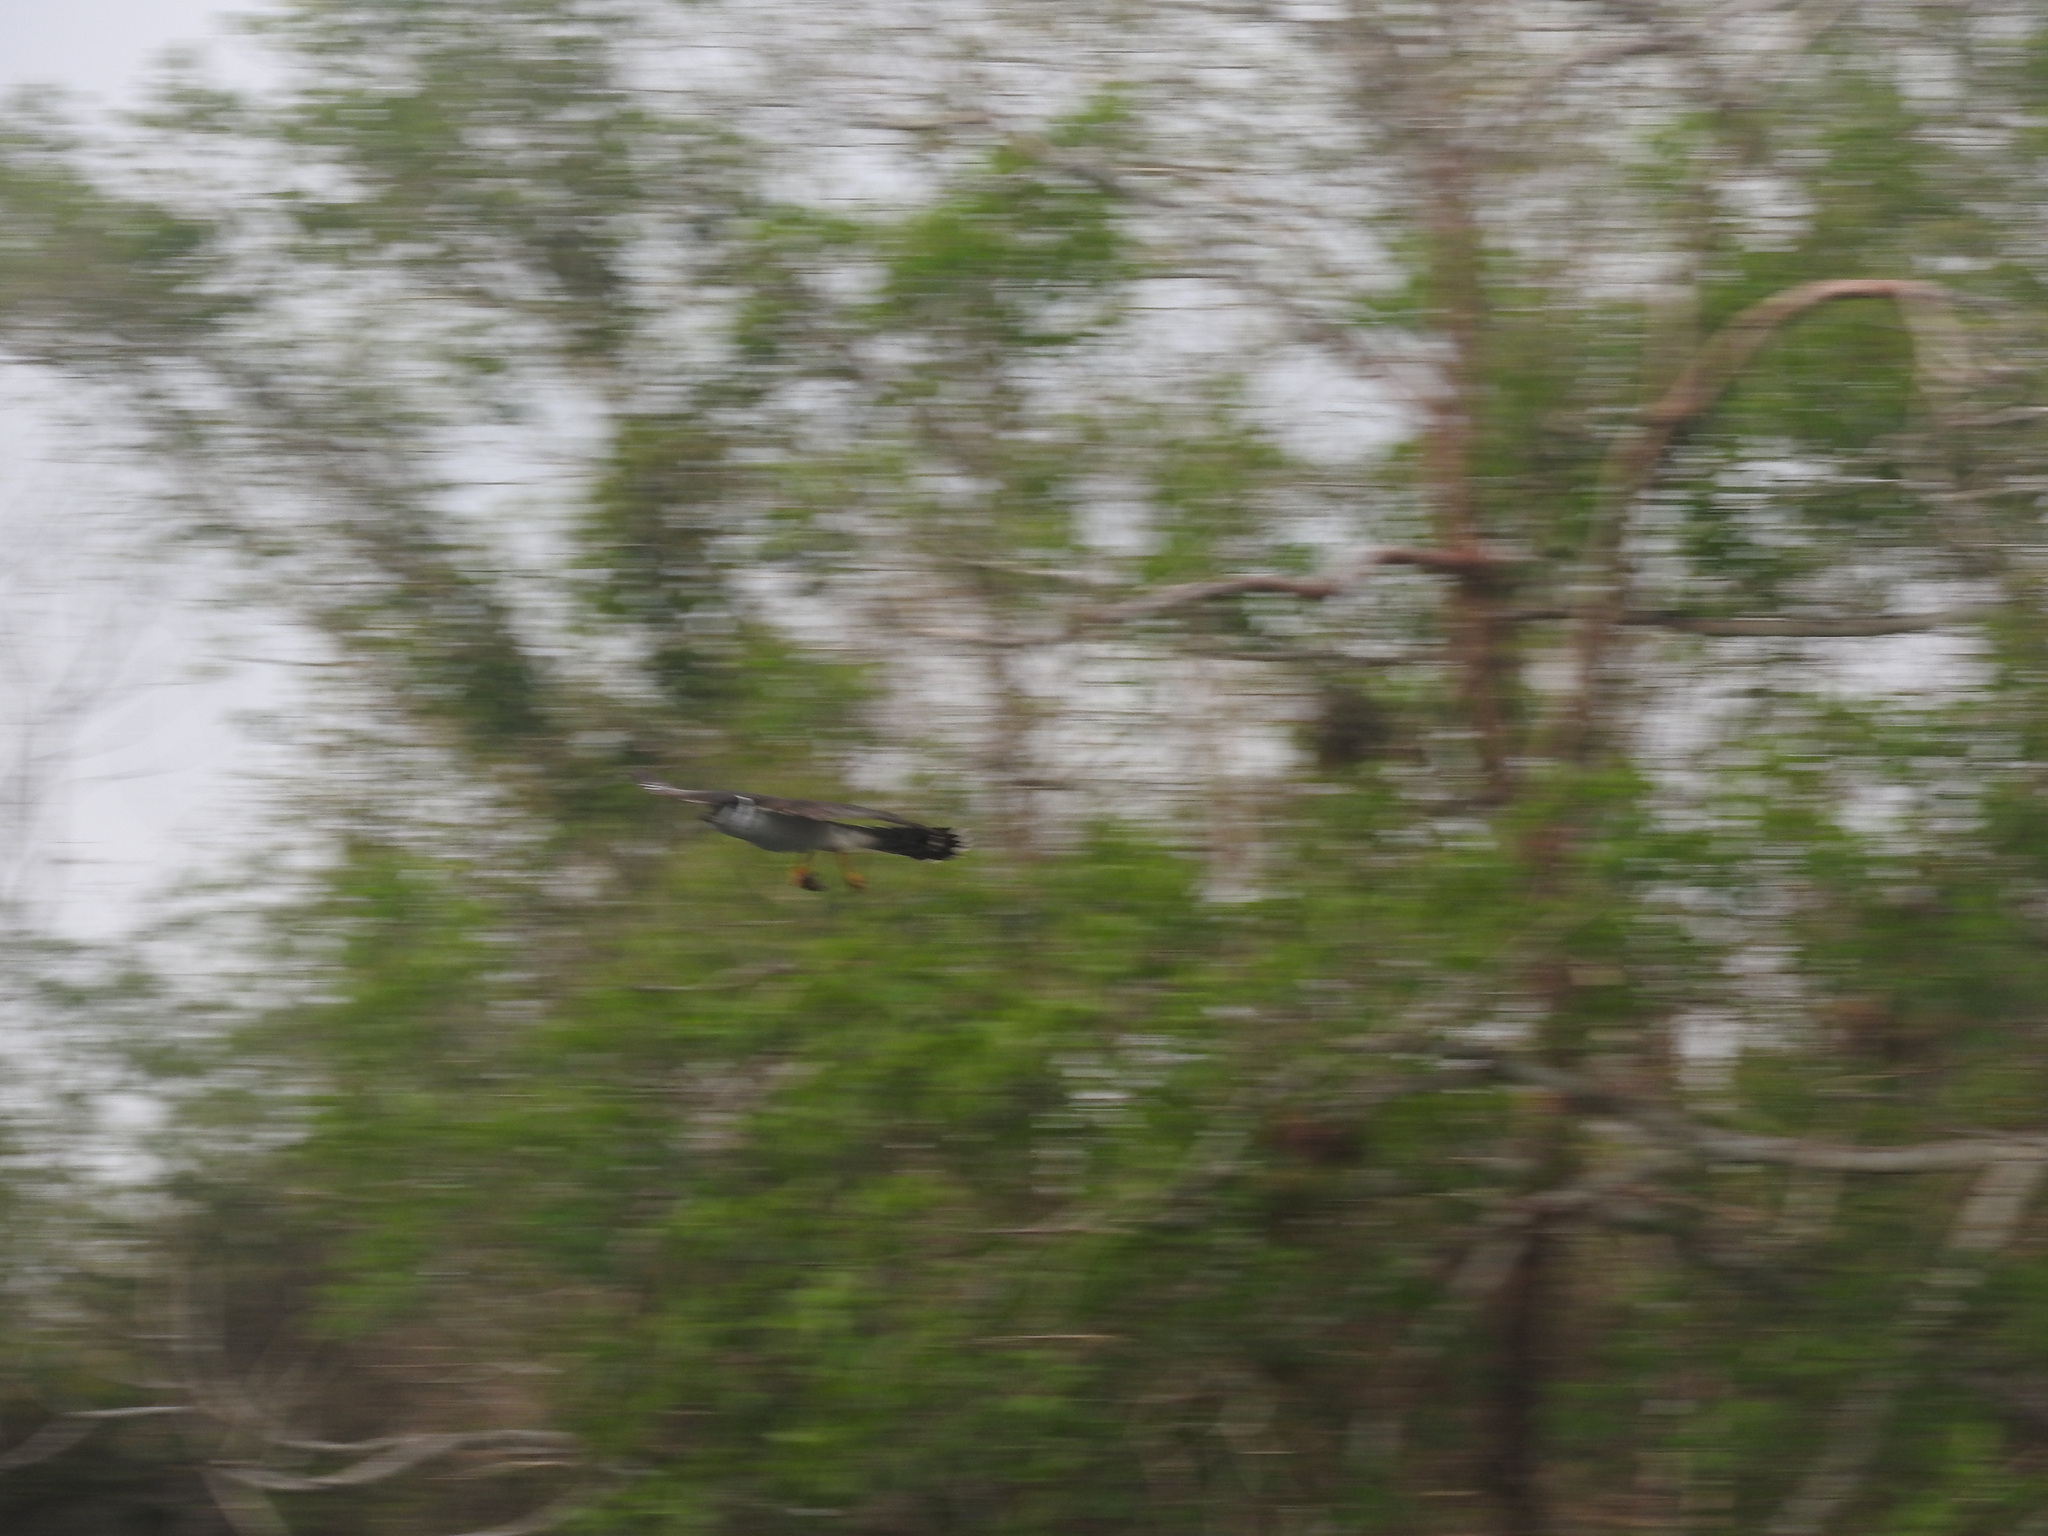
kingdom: Animalia
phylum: Chordata
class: Aves
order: Falconiformes
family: Falconidae
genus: Micrastur
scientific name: Micrastur semitorquatus
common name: Collared forest-falcon
